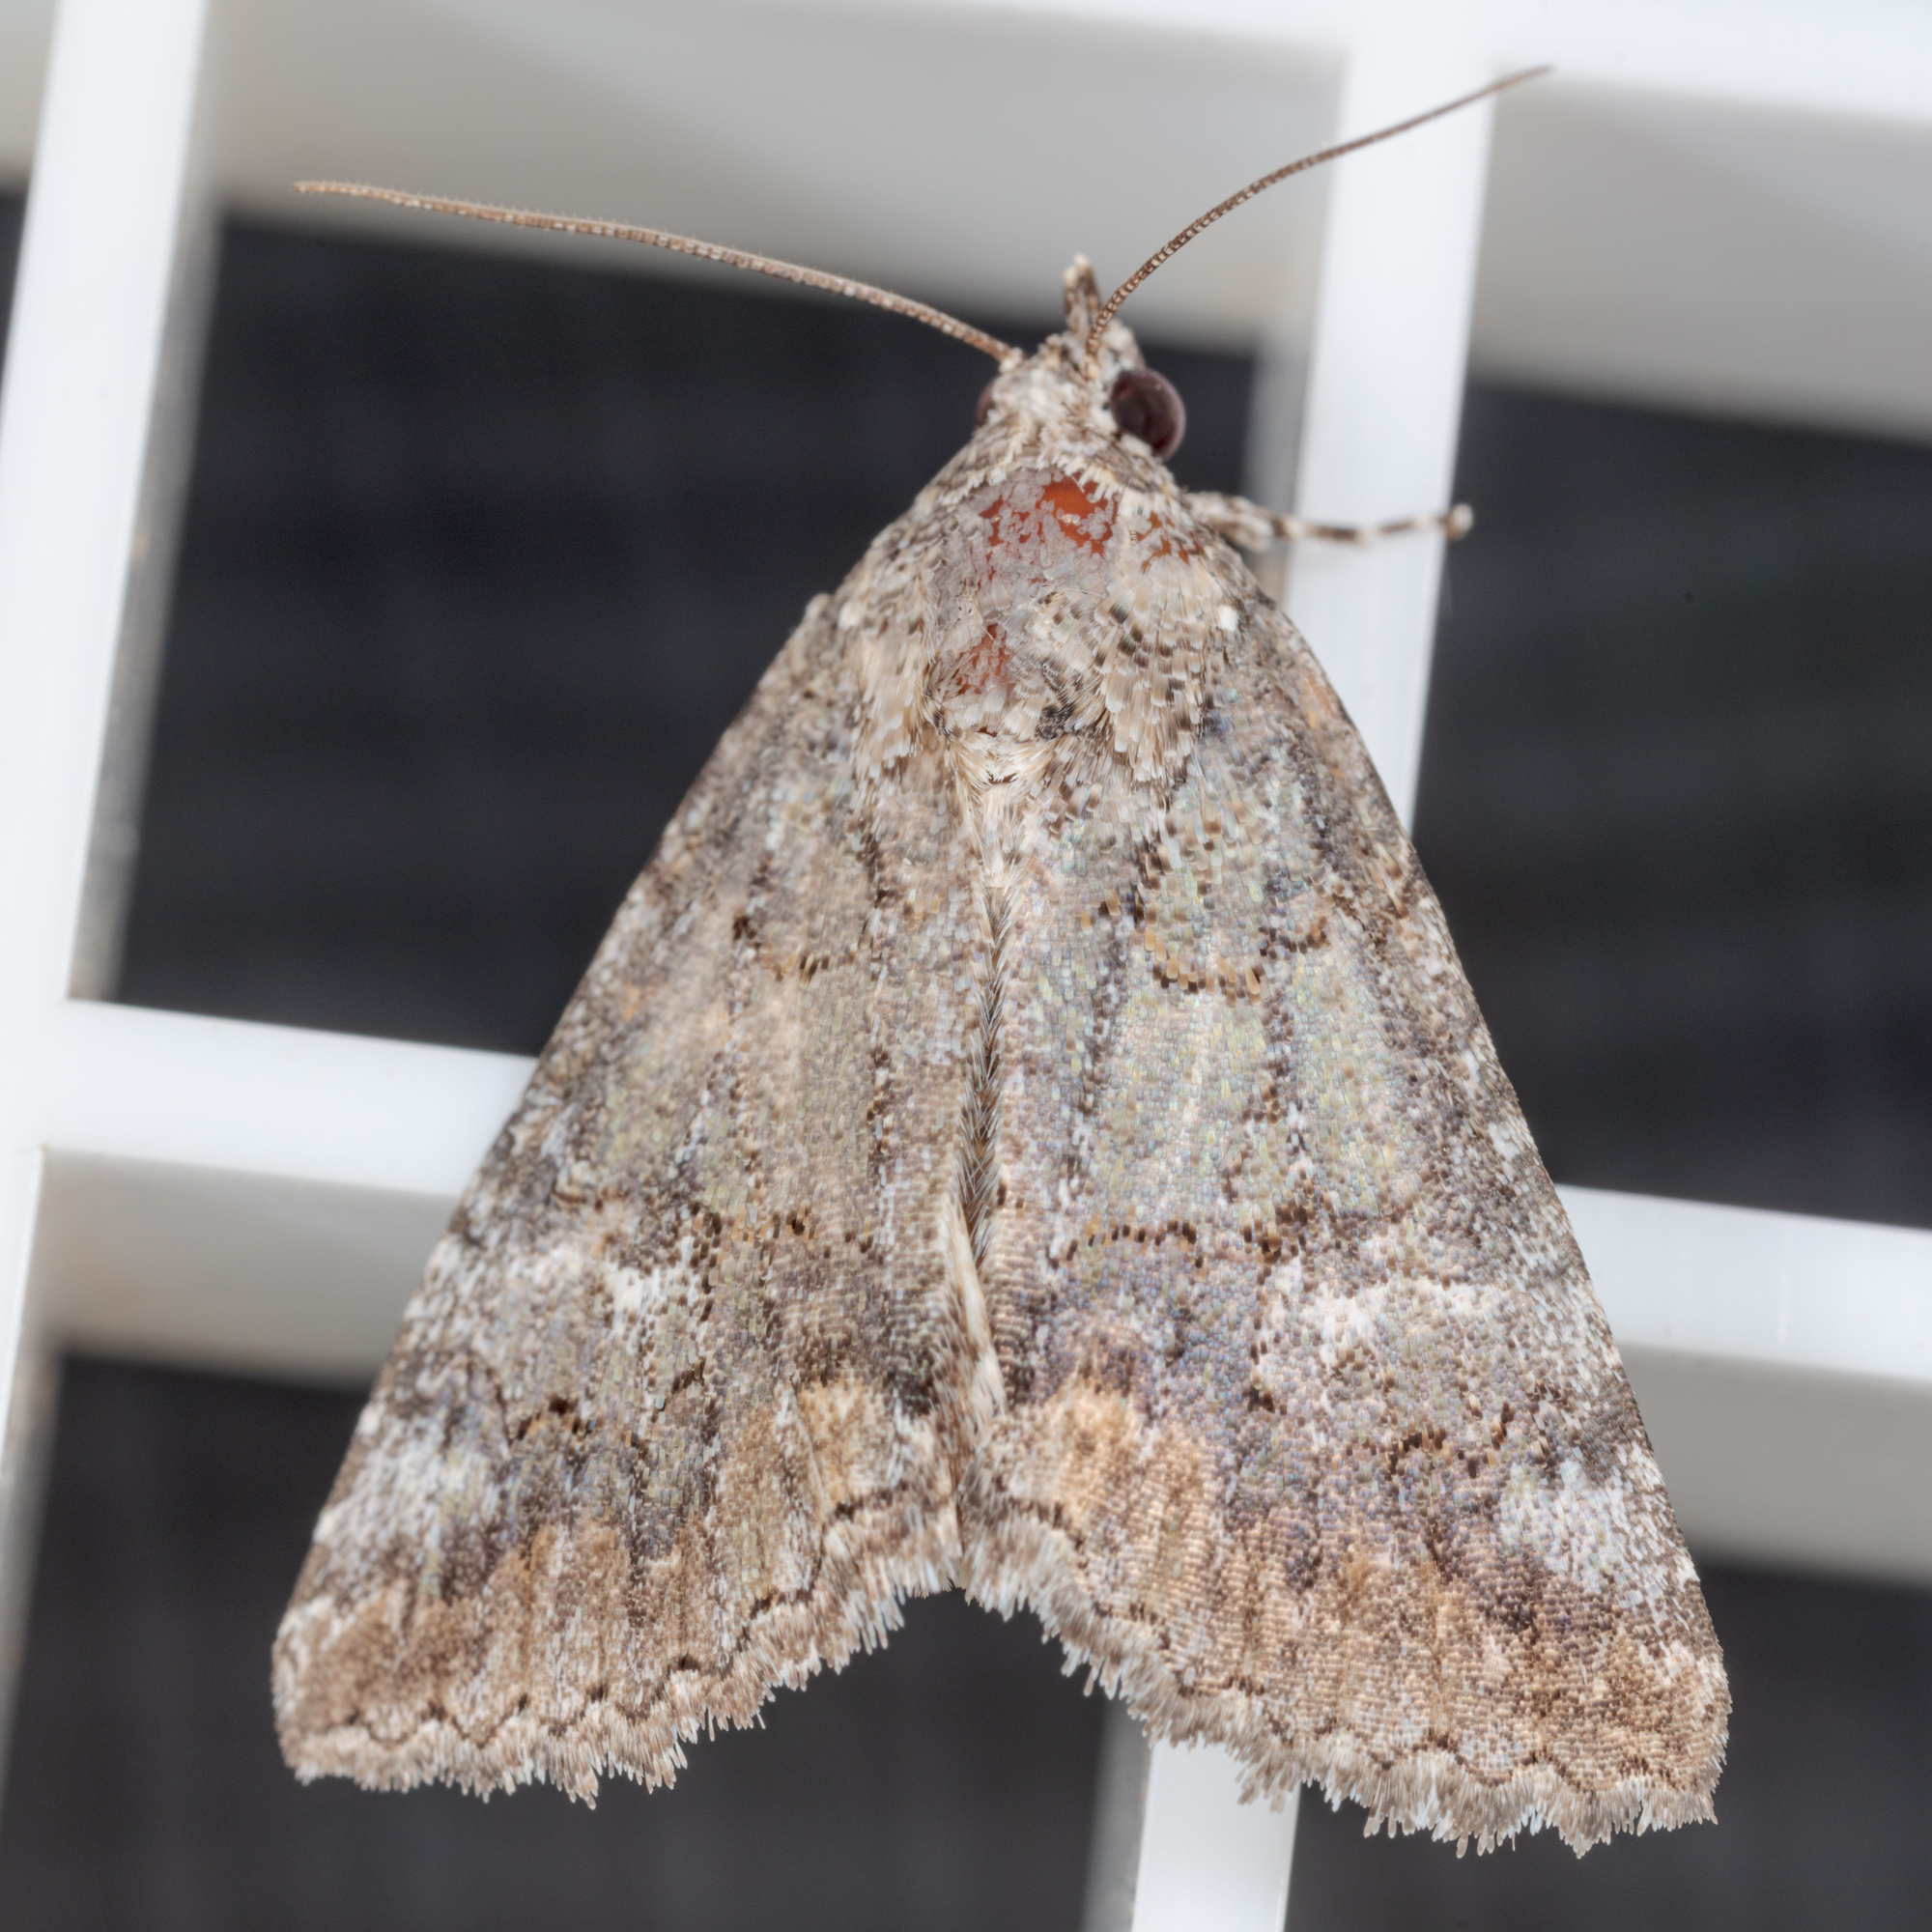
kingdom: Animalia
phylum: Arthropoda
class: Insecta
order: Lepidoptera
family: Erebidae
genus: Eubolina
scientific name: Eubolina impartialis
